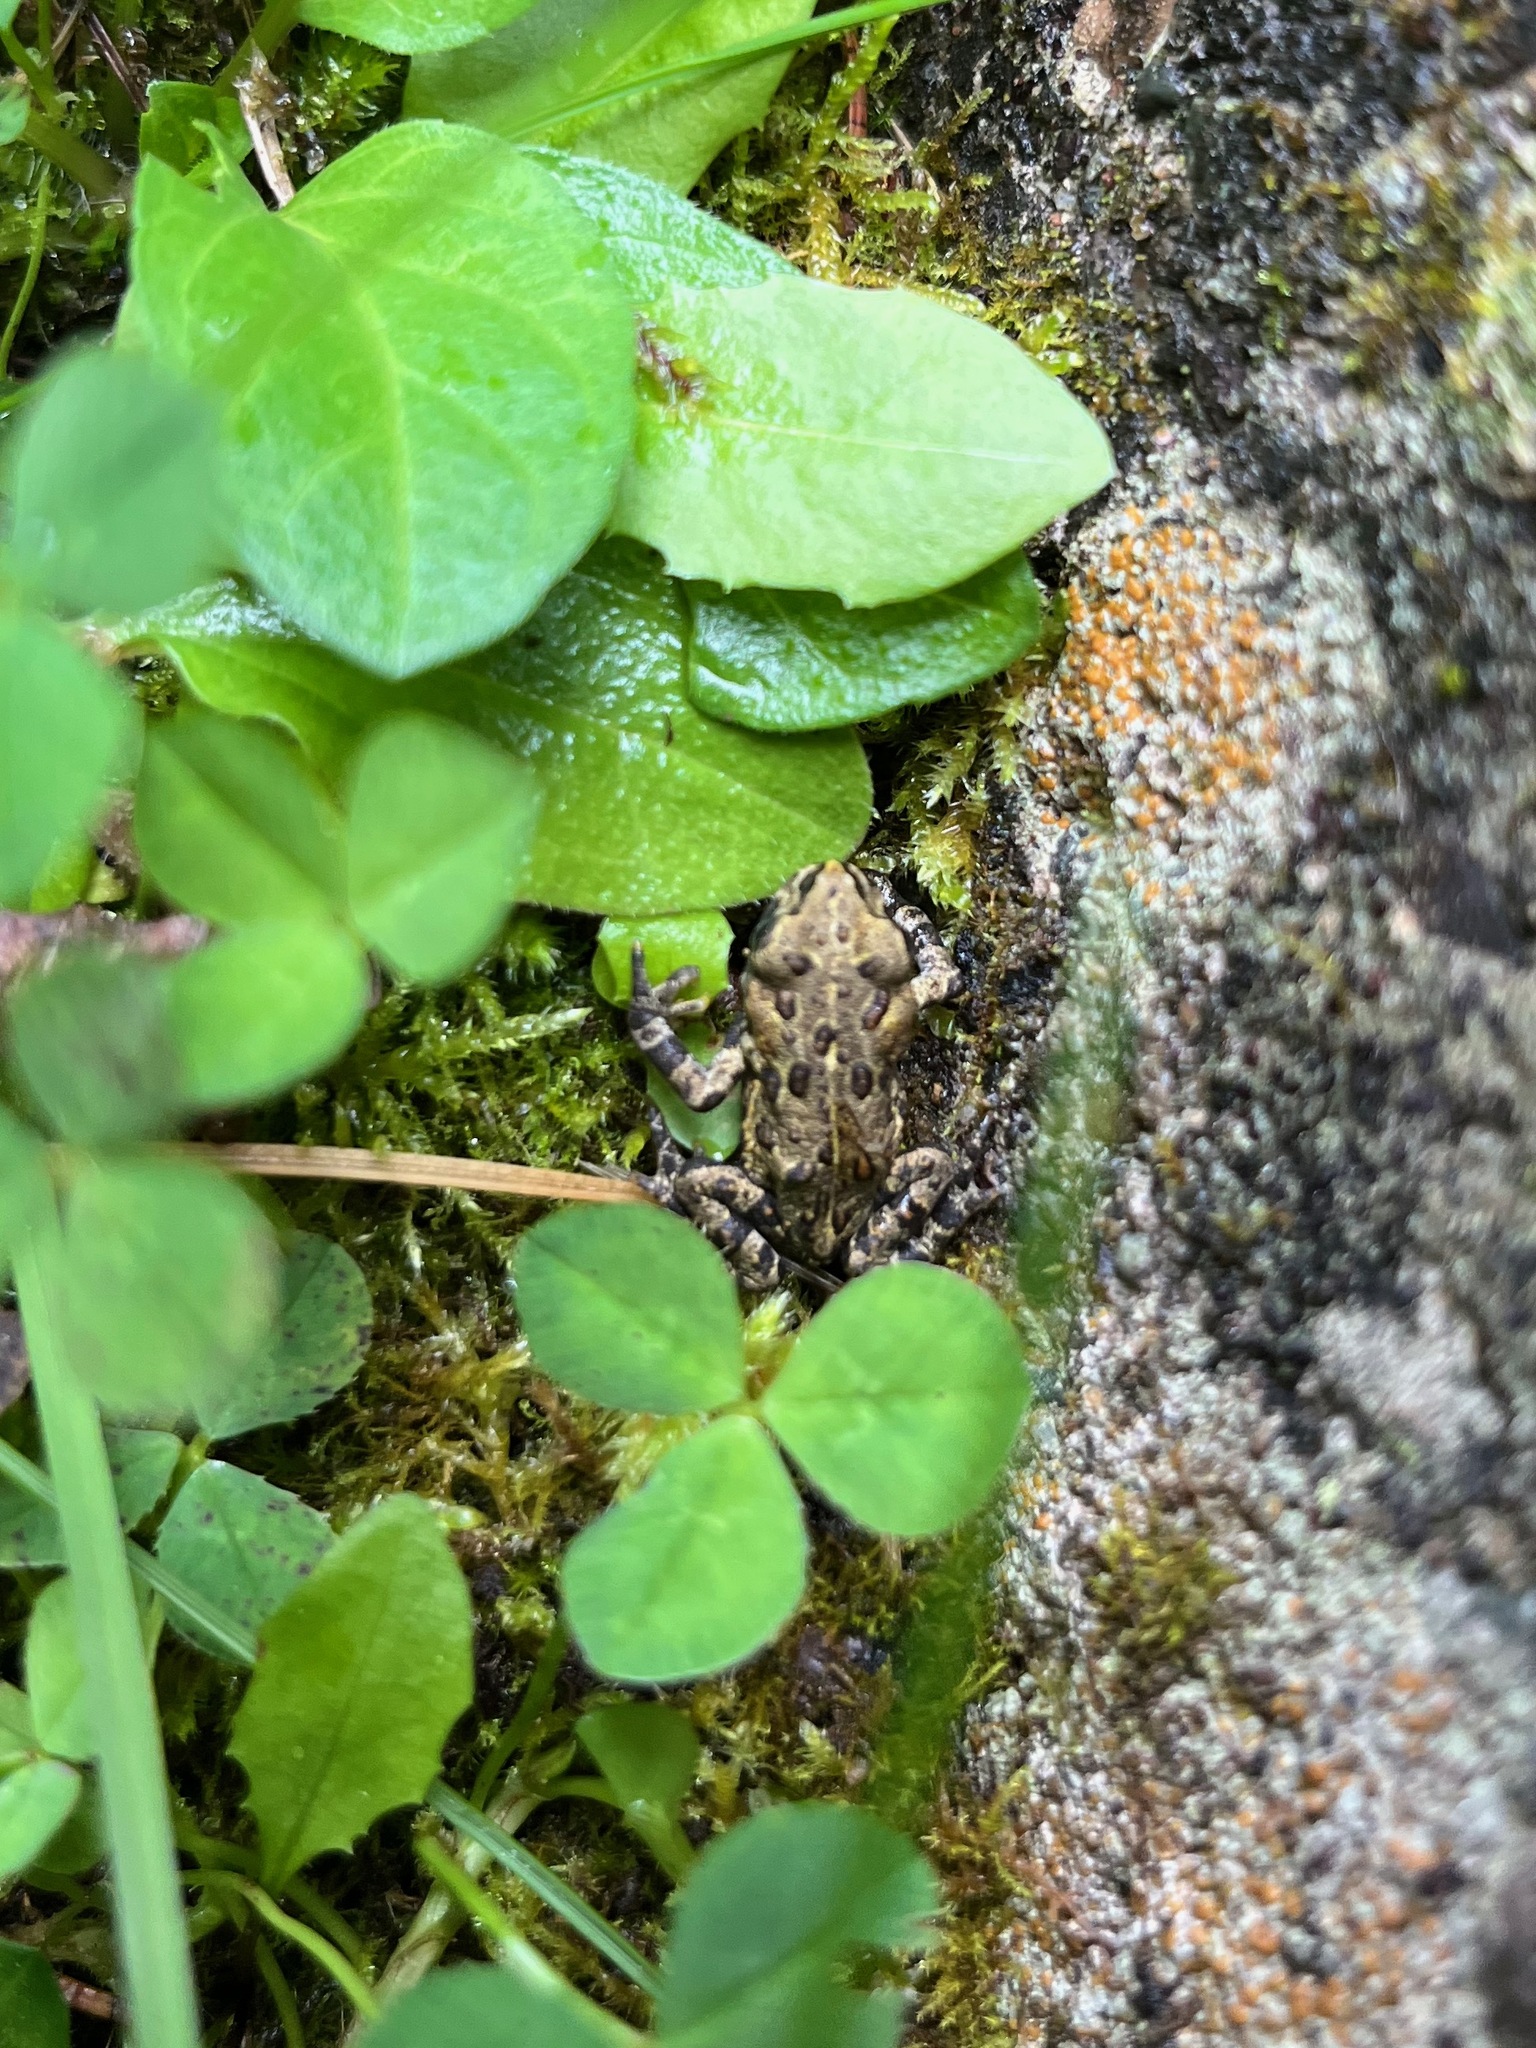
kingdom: Animalia
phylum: Chordata
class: Amphibia
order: Anura
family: Bufonidae
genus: Anaxyrus
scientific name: Anaxyrus boreas
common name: Western toad
